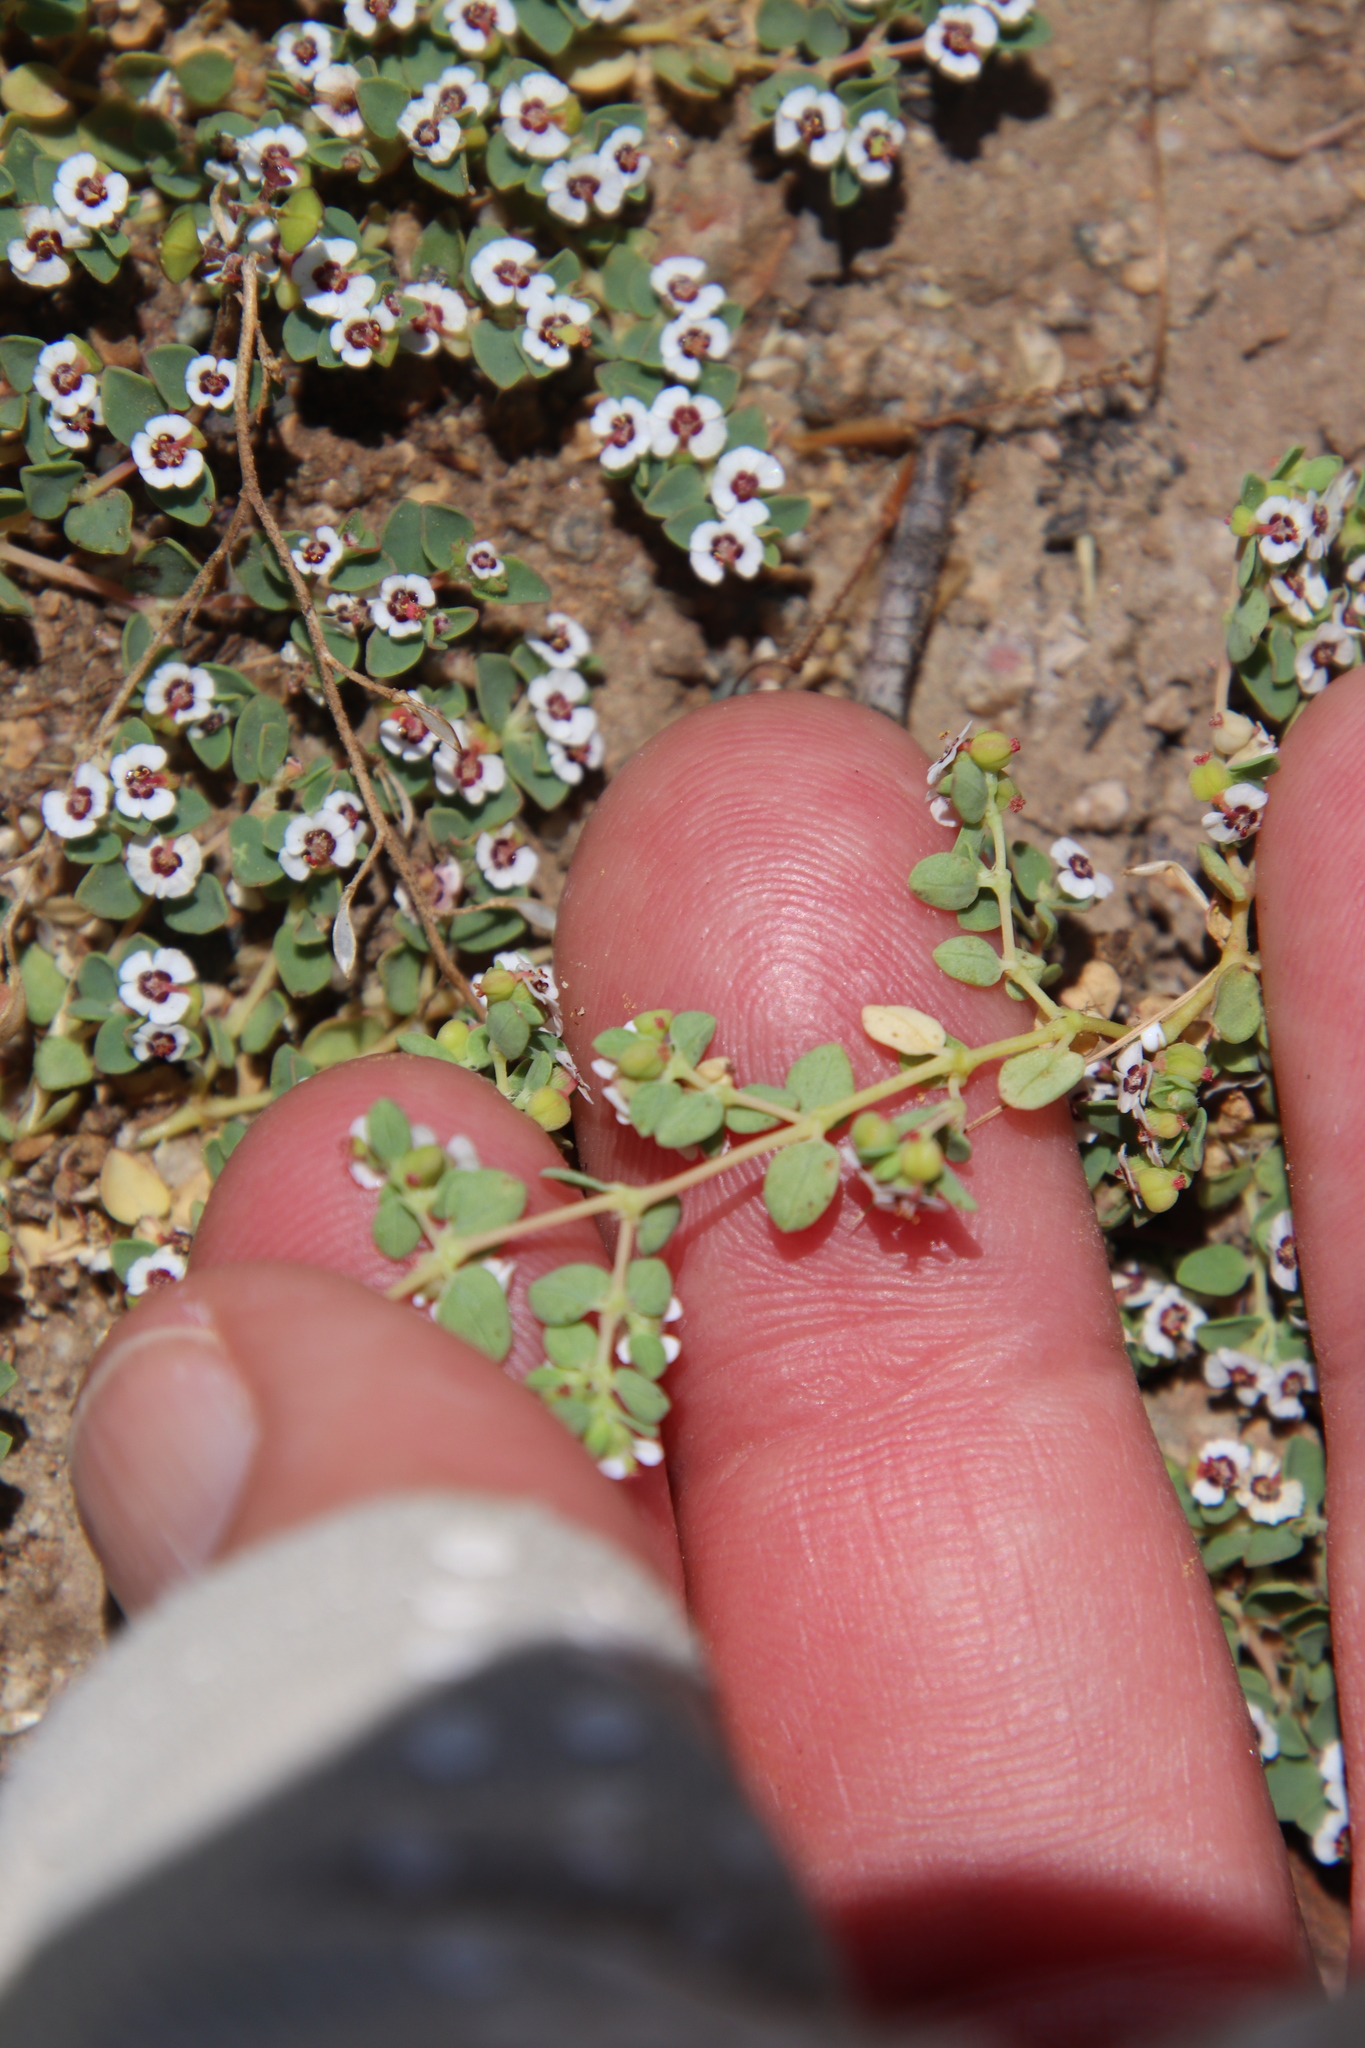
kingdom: Plantae
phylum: Tracheophyta
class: Magnoliopsida
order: Malpighiales
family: Euphorbiaceae
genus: Euphorbia
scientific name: Euphorbia polycarpa
